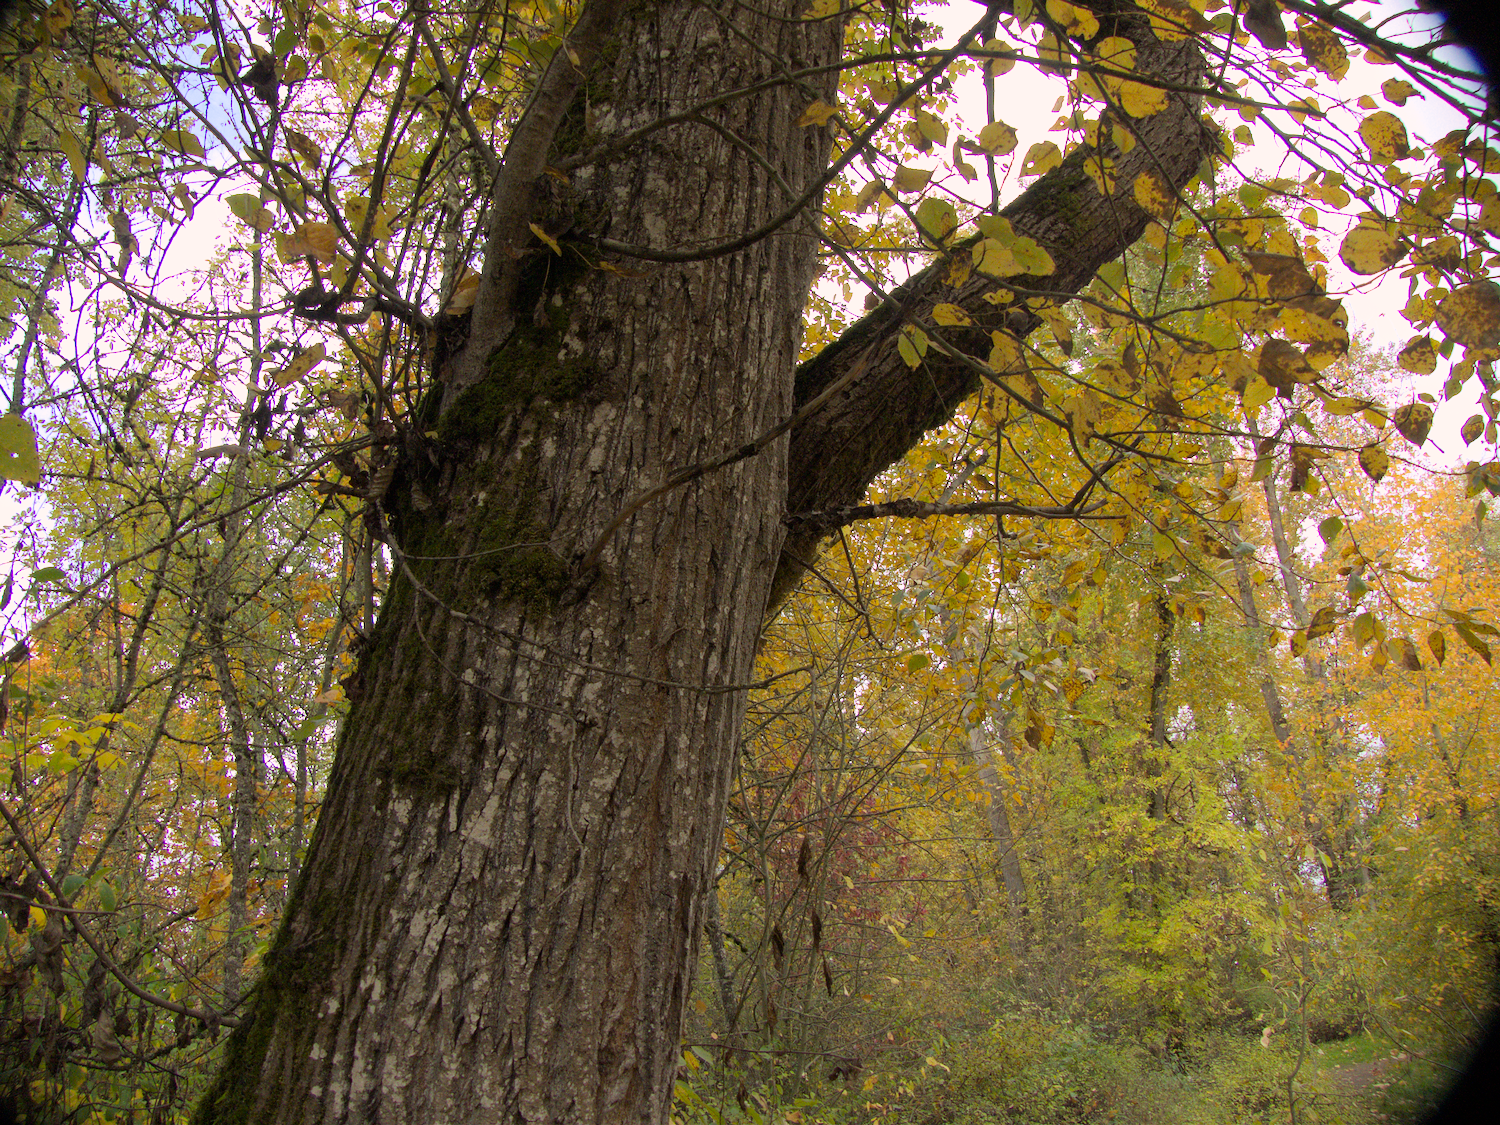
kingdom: Plantae
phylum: Tracheophyta
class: Magnoliopsida
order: Malpighiales
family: Salicaceae
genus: Populus
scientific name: Populus trichocarpa
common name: Black cottonwood
